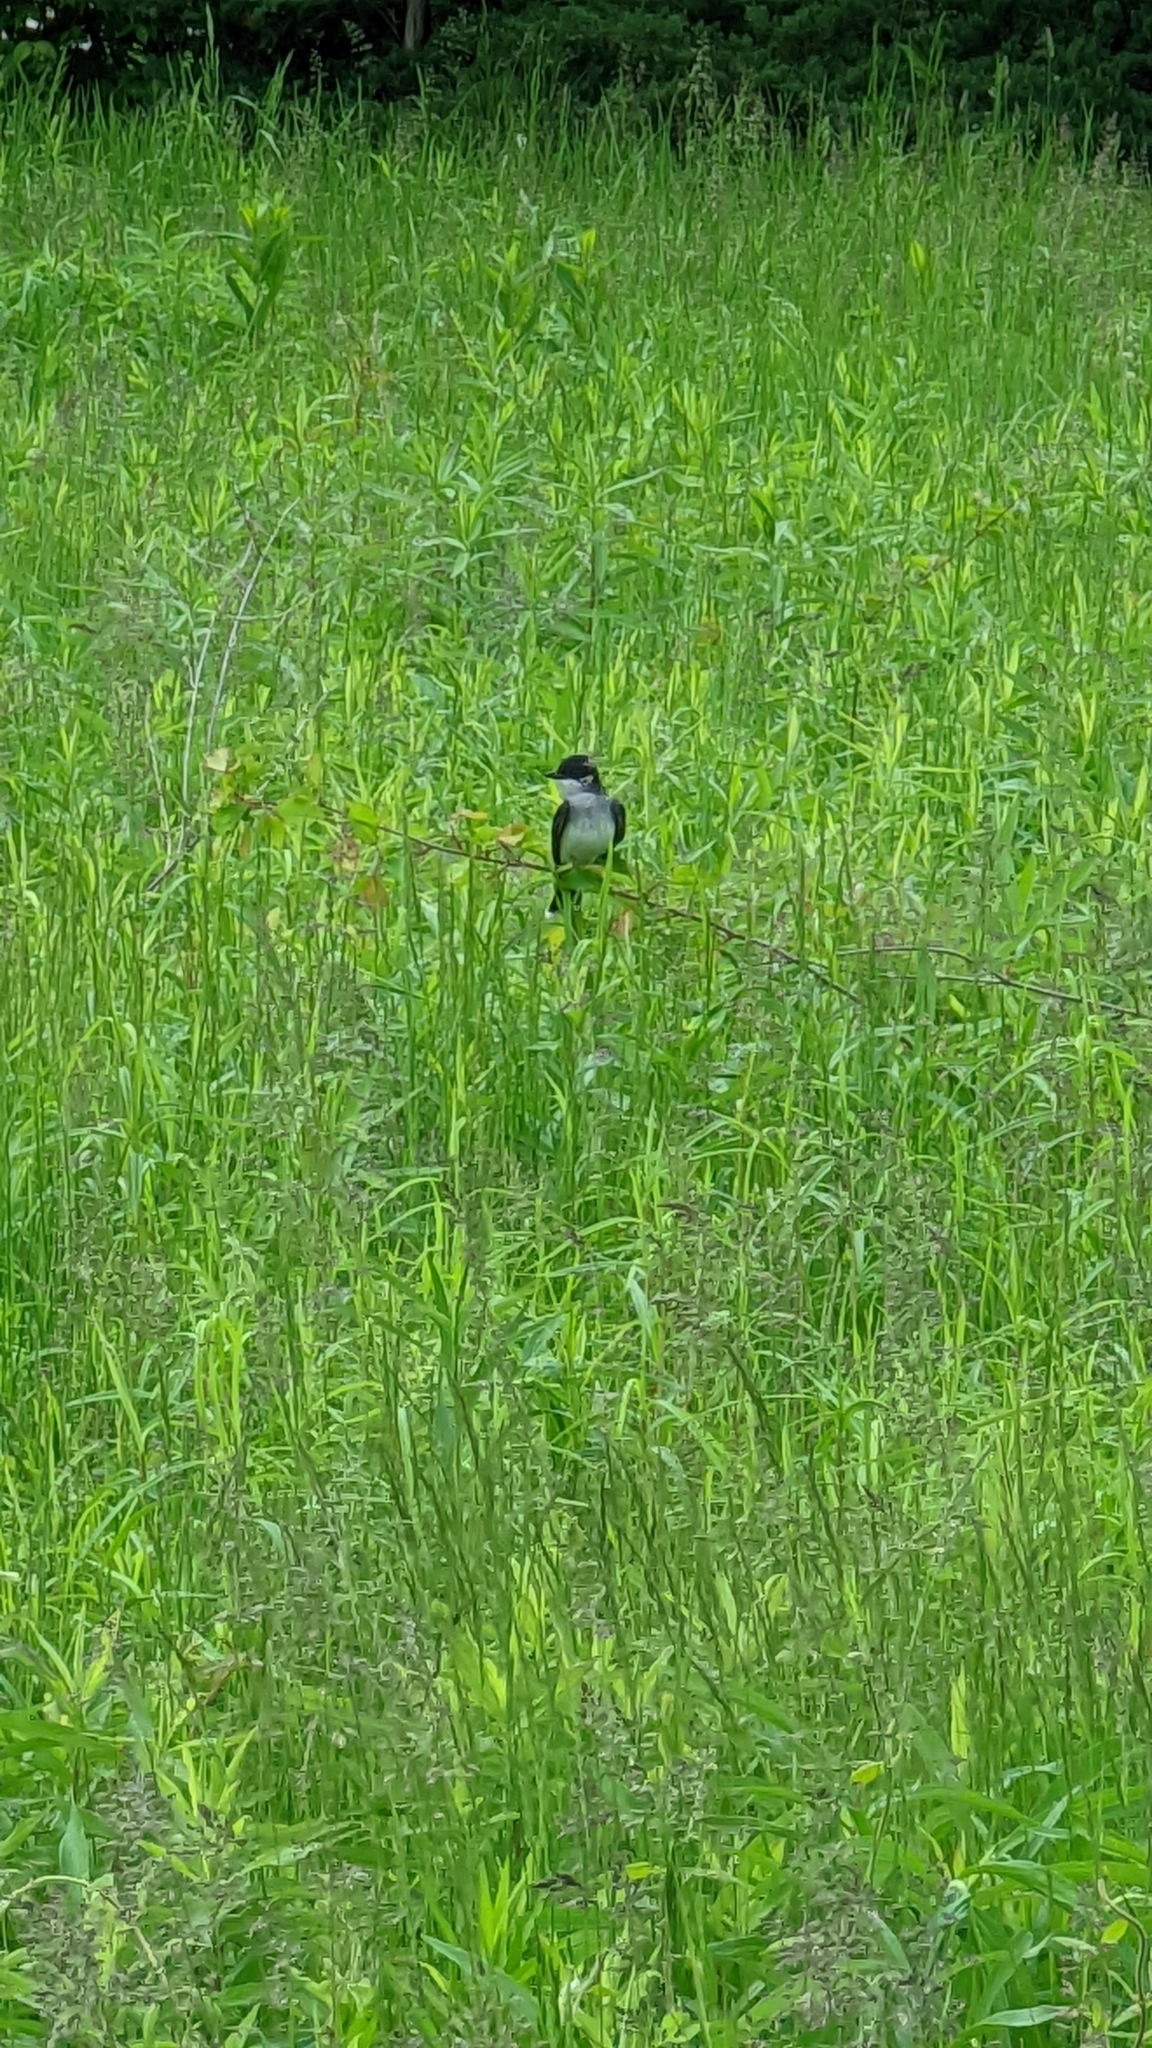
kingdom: Animalia
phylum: Chordata
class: Aves
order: Passeriformes
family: Tyrannidae
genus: Tyrannus
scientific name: Tyrannus tyrannus
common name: Eastern kingbird
